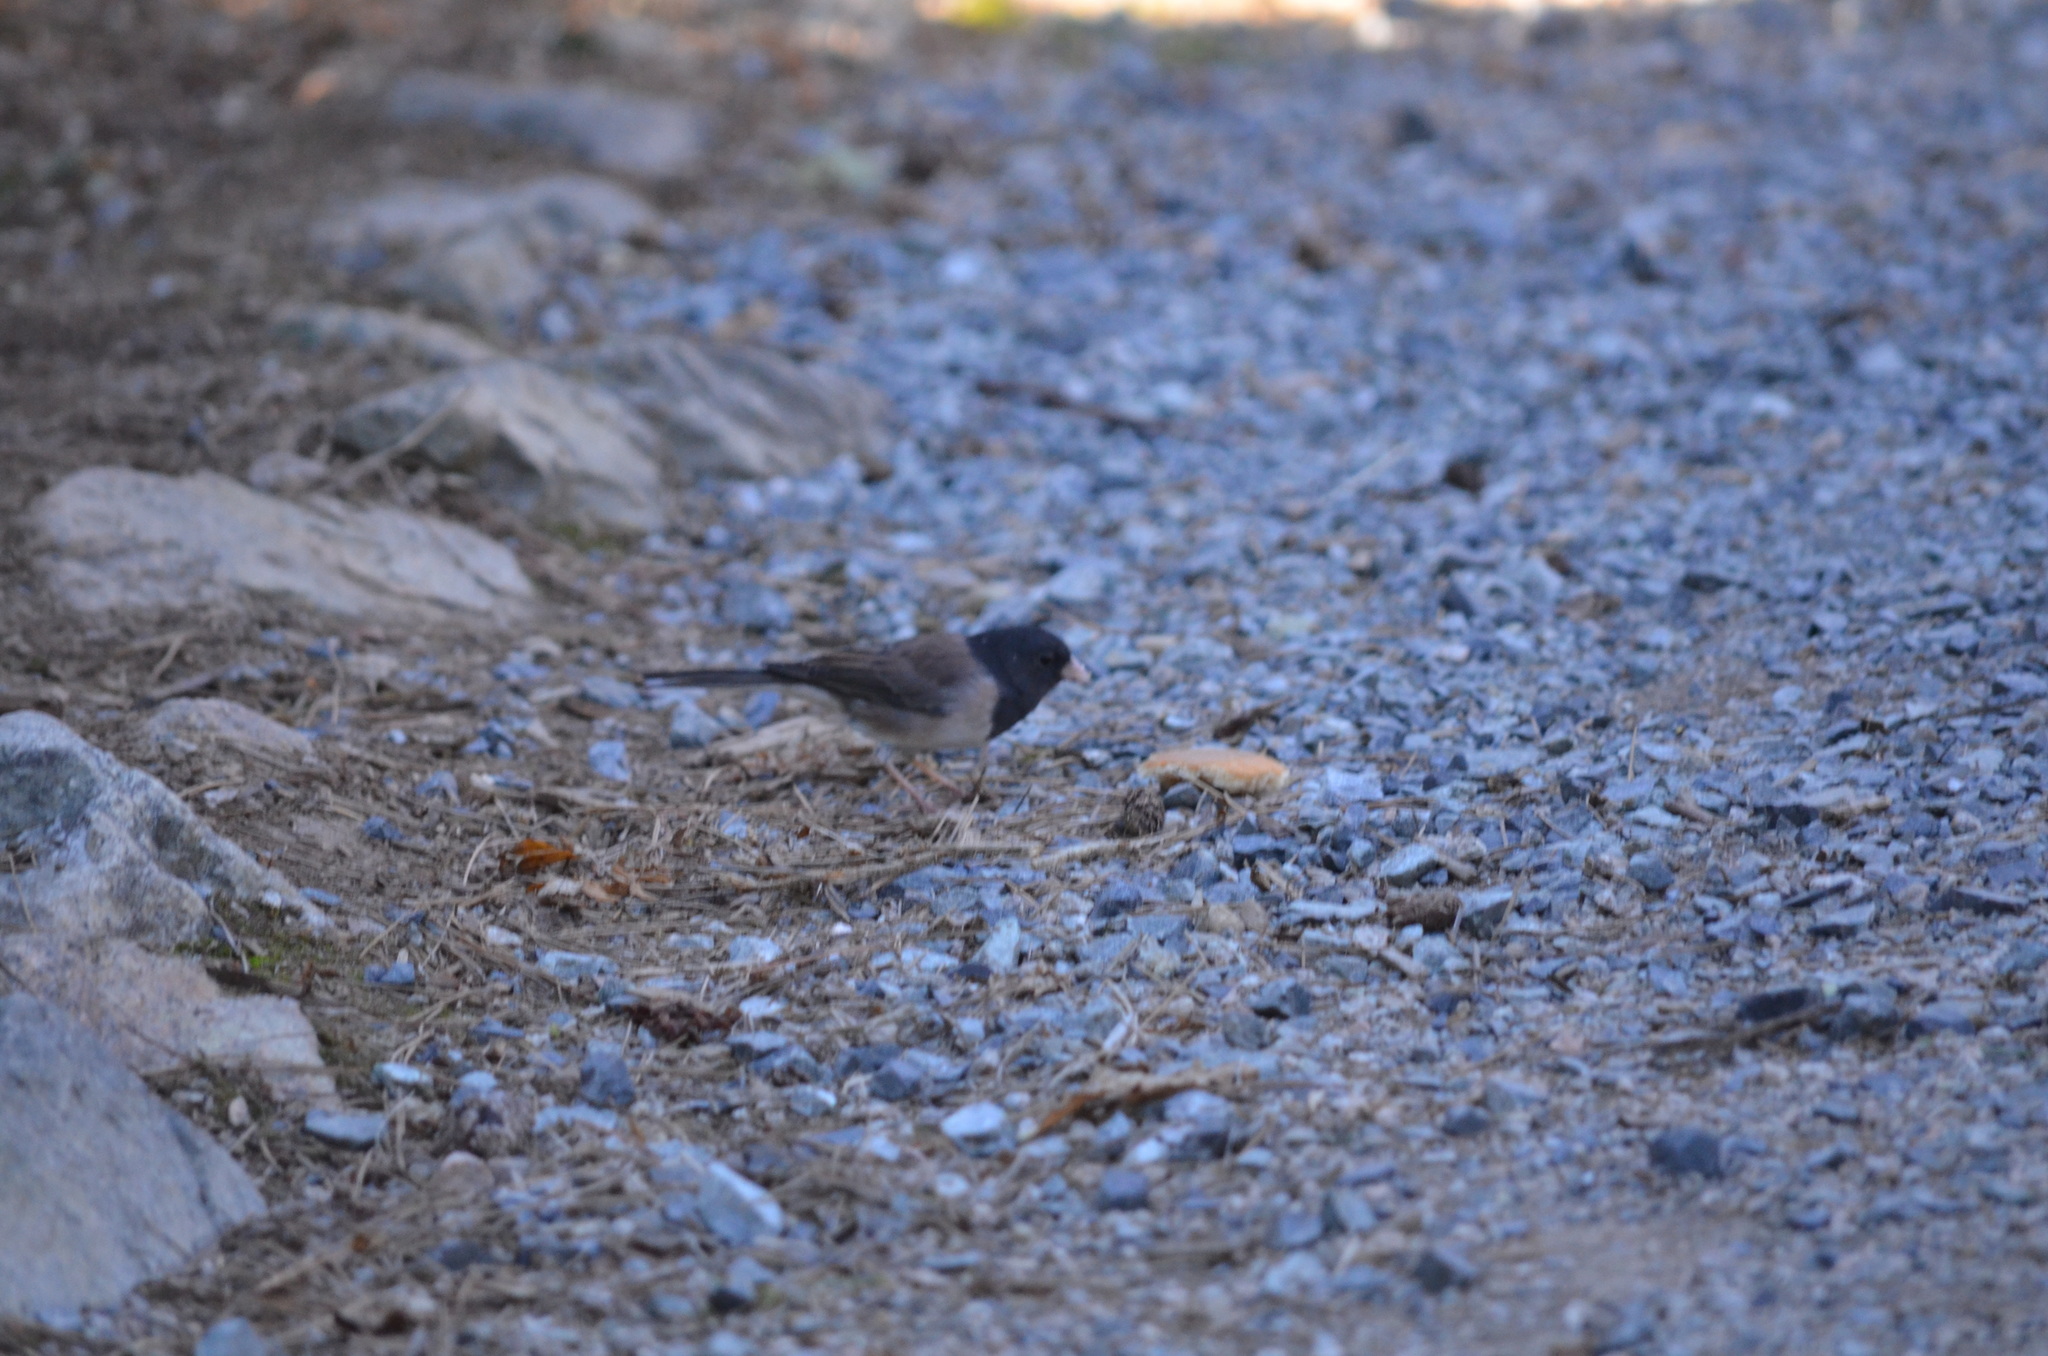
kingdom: Animalia
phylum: Chordata
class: Aves
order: Passeriformes
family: Passerellidae
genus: Junco
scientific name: Junco hyemalis
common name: Dark-eyed junco
